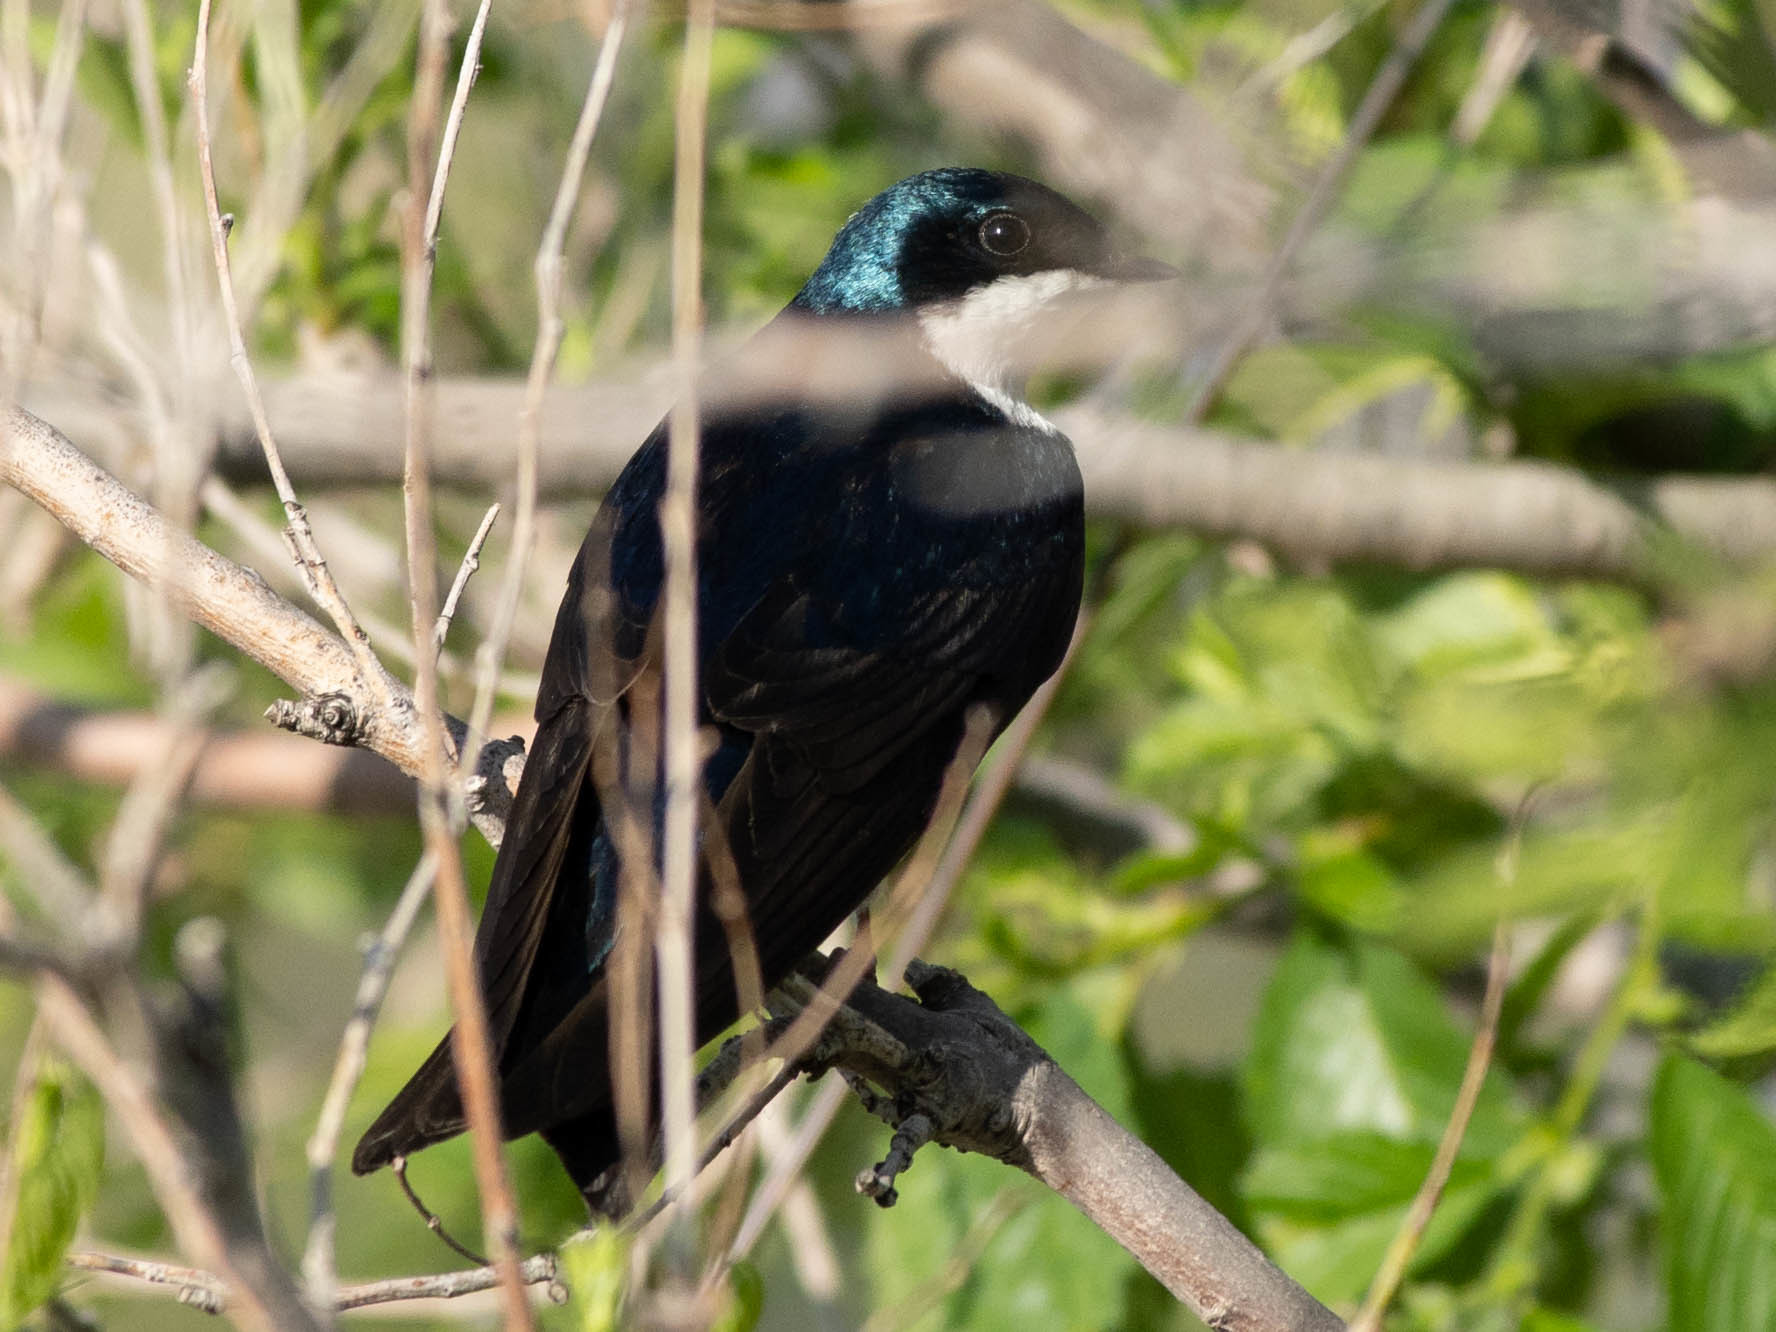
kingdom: Animalia
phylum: Chordata
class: Aves
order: Passeriformes
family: Hirundinidae
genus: Tachycineta
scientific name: Tachycineta bicolor
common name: Tree swallow
